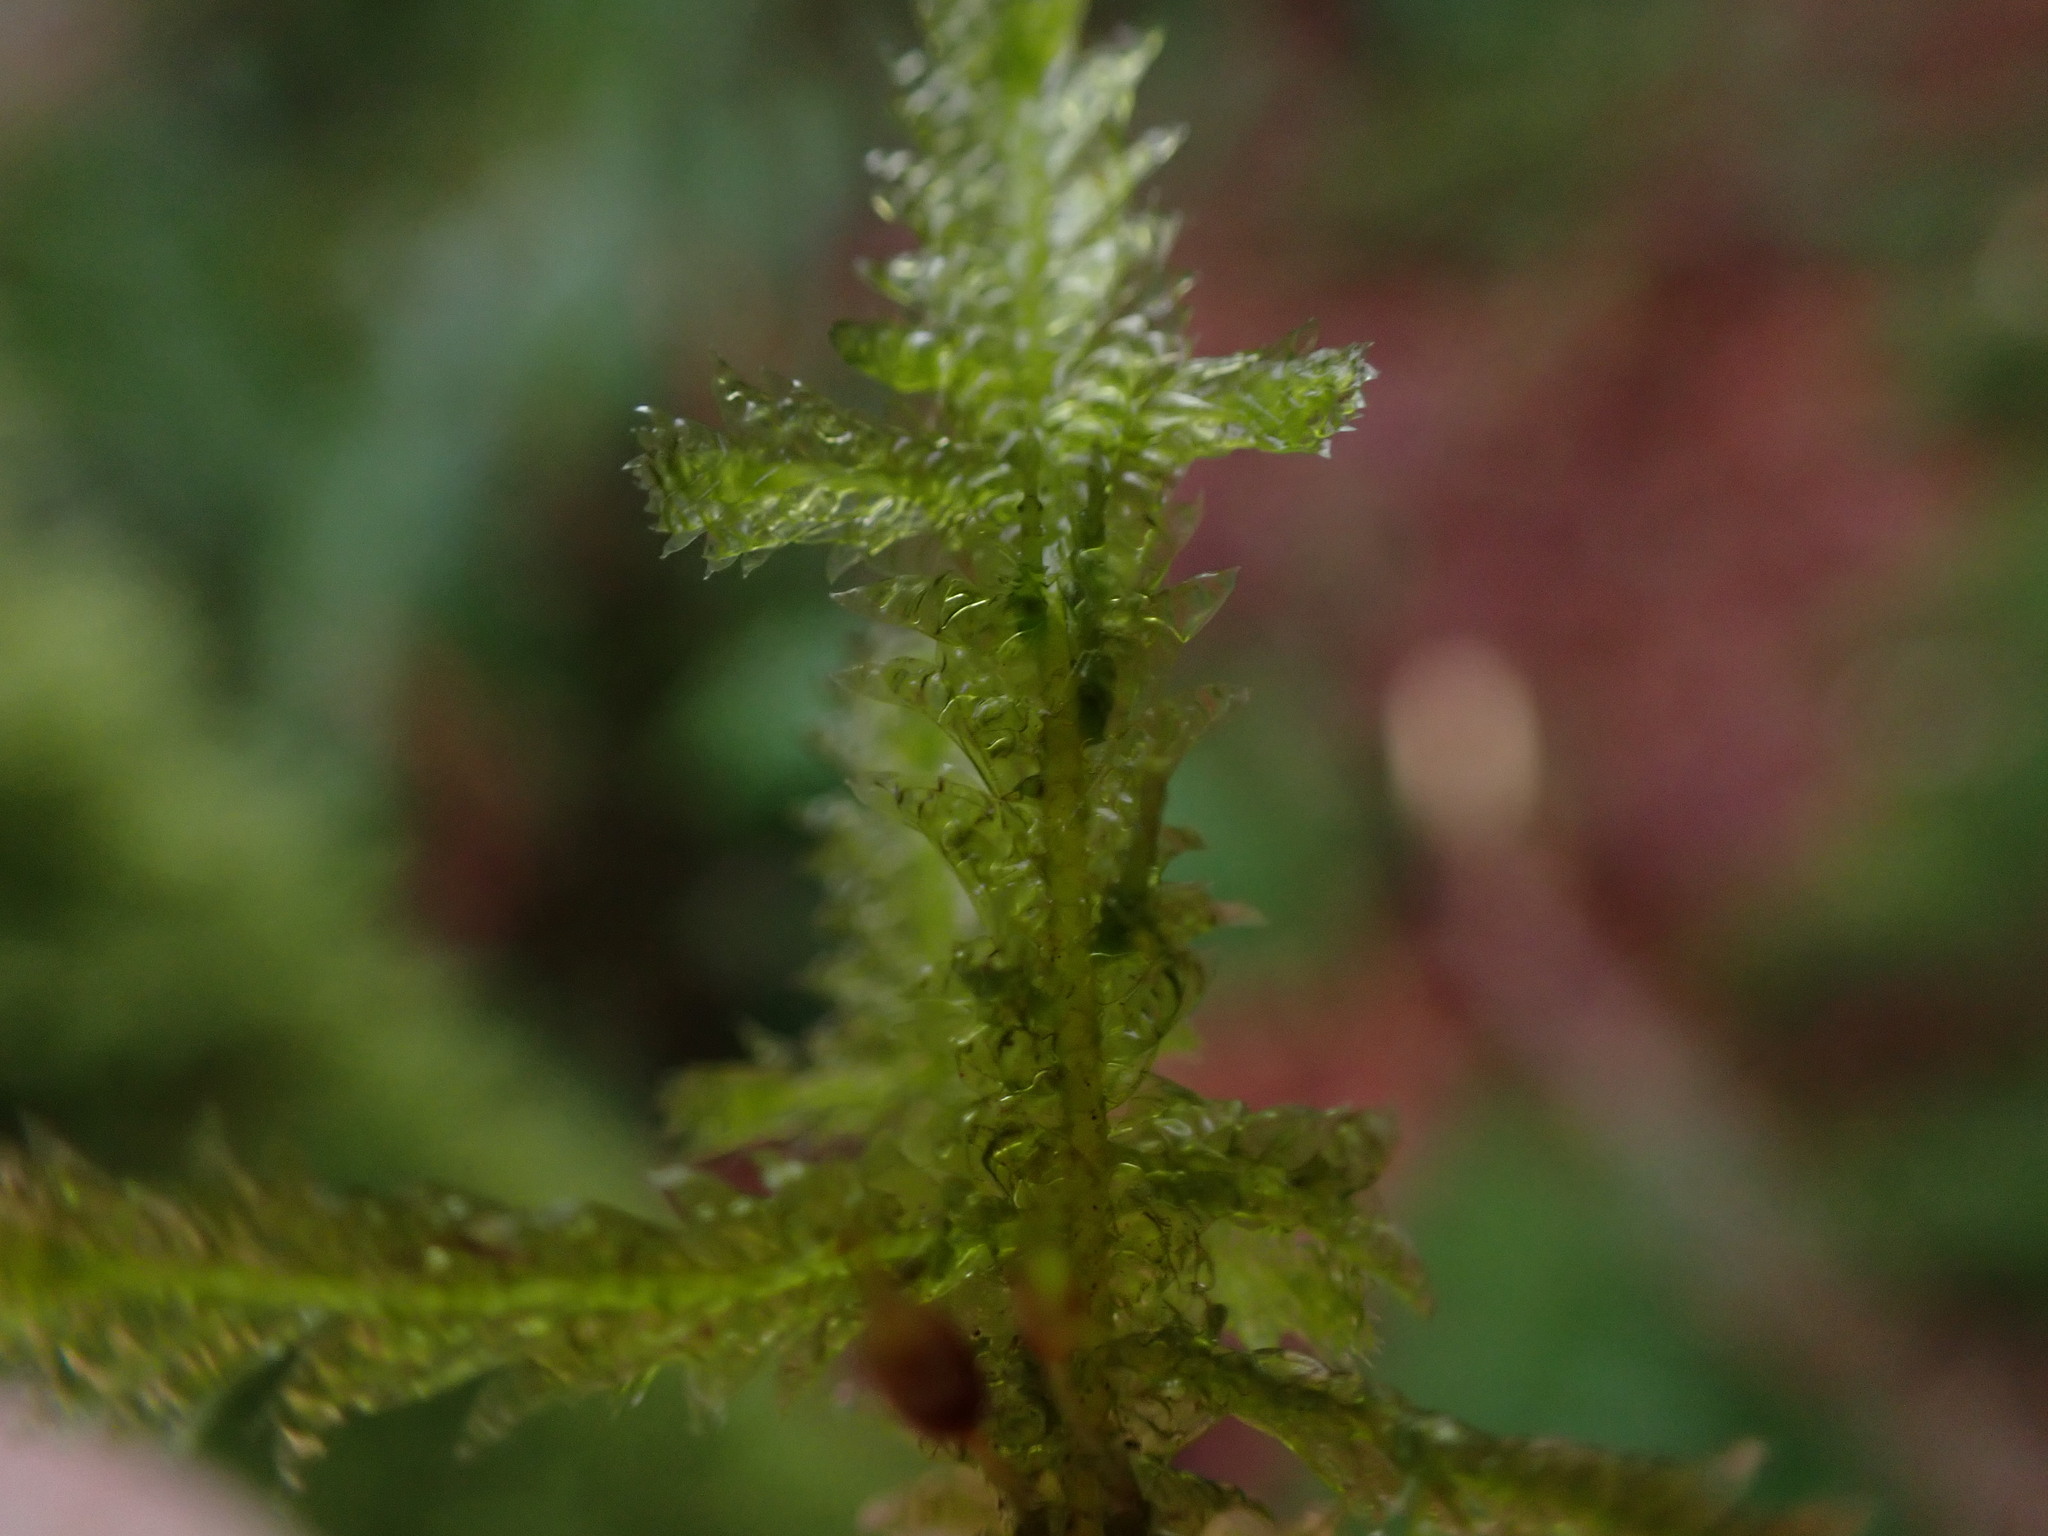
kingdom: Plantae
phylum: Bryophyta
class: Bryopsida
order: Hypnales
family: Neckeraceae
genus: Neckera
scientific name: Neckera douglasii
